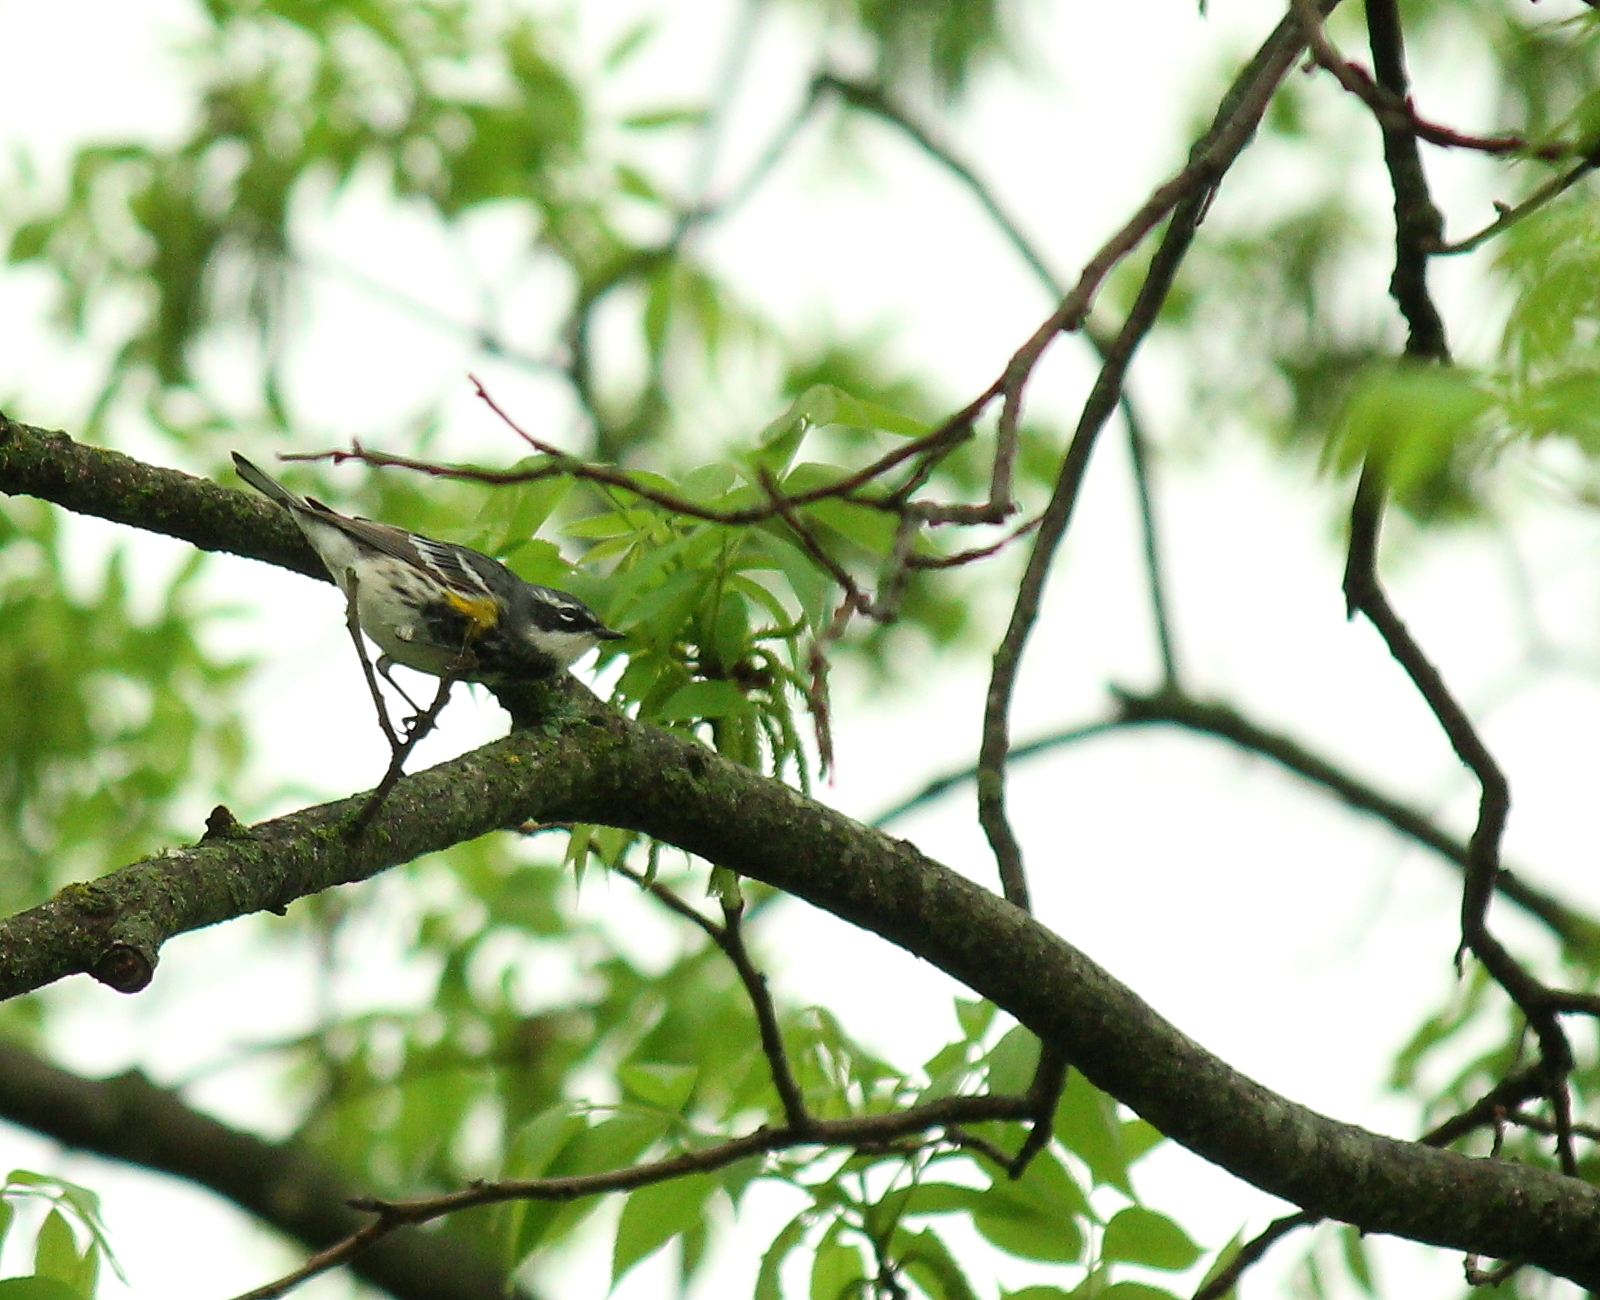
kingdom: Animalia
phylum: Chordata
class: Aves
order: Passeriformes
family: Parulidae
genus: Setophaga
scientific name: Setophaga coronata
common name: Myrtle warbler
